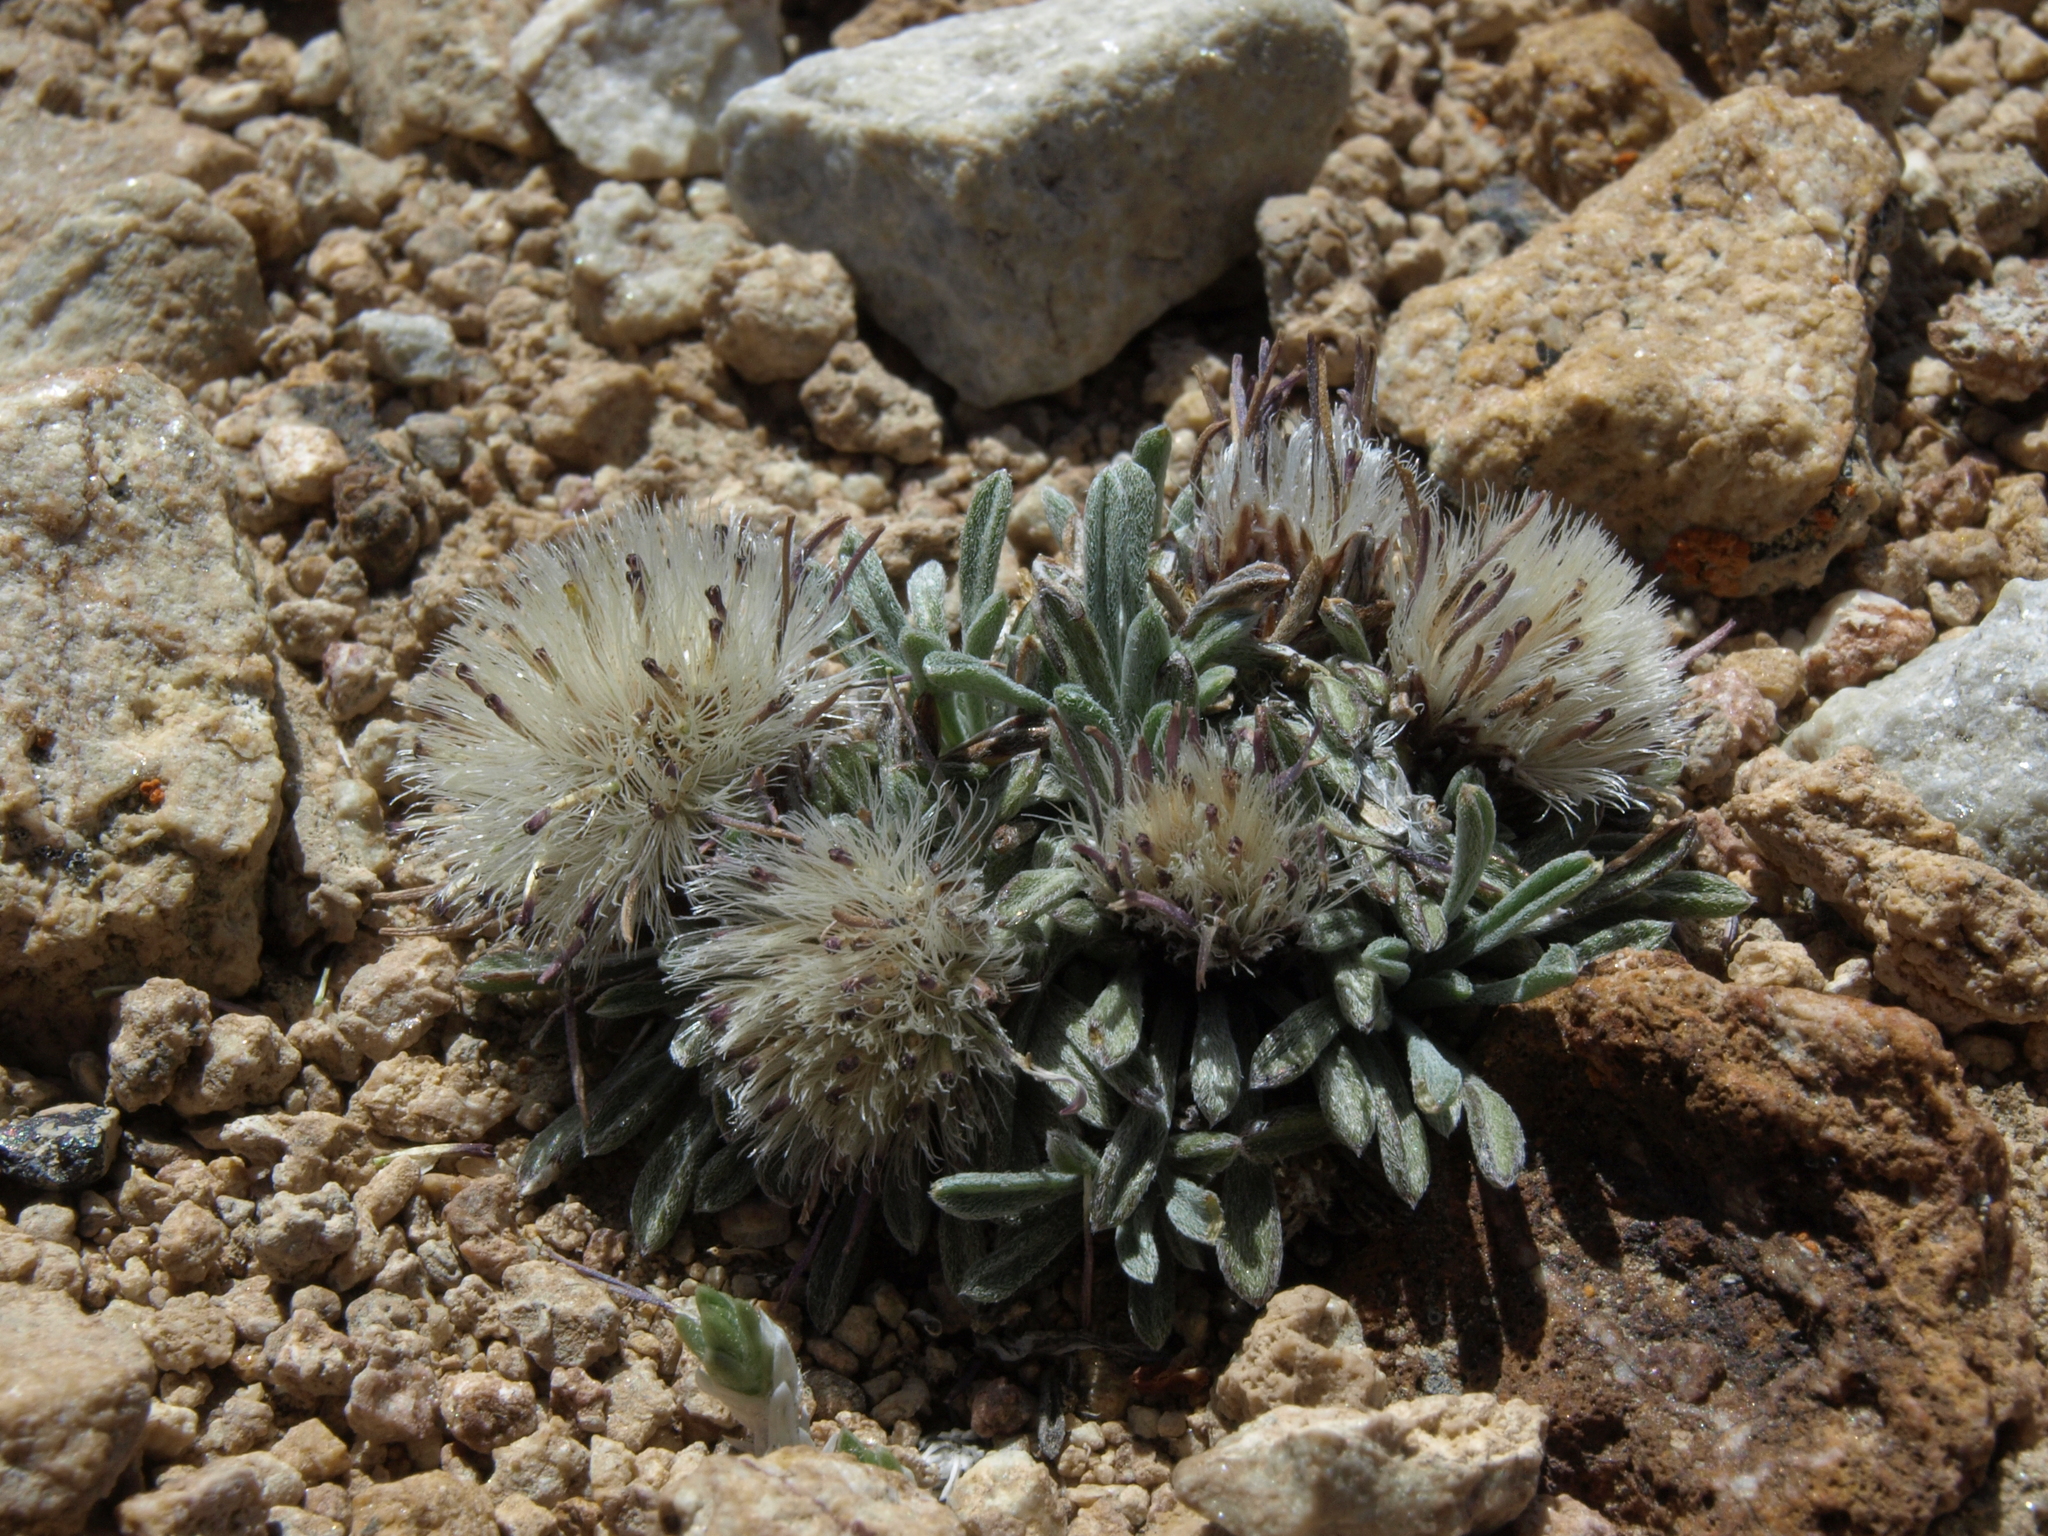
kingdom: Plantae
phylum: Tracheophyta
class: Magnoliopsida
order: Asterales
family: Asteraceae
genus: Townsendia
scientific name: Townsendia leptotes
